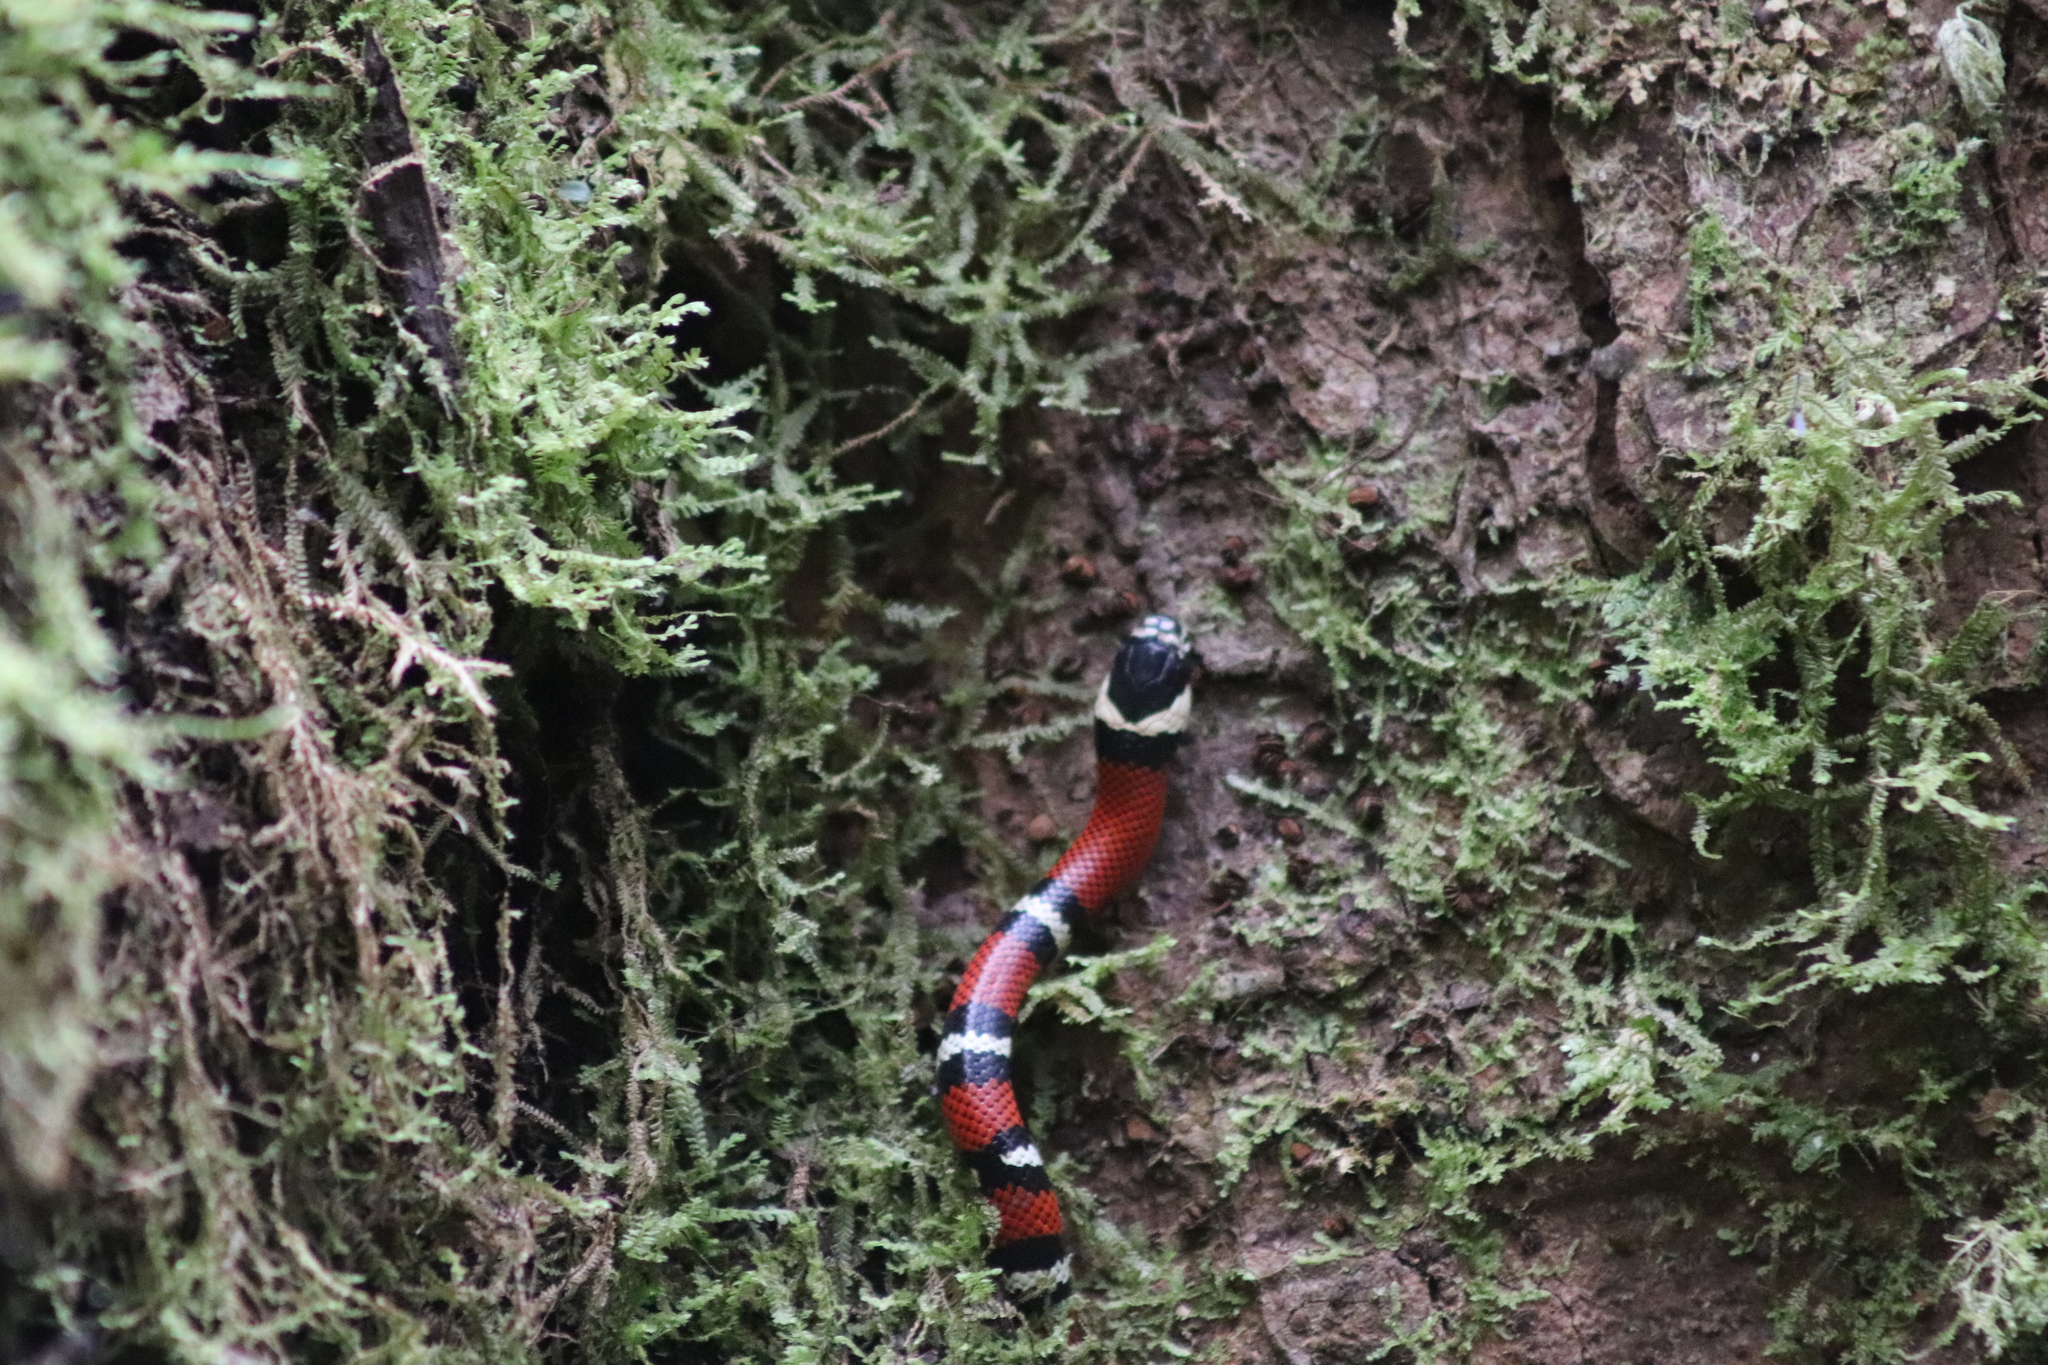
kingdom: Animalia
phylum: Chordata
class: Squamata
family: Colubridae
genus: Lampropeltis
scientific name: Lampropeltis micropholis
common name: Ecuadorian milksnake
